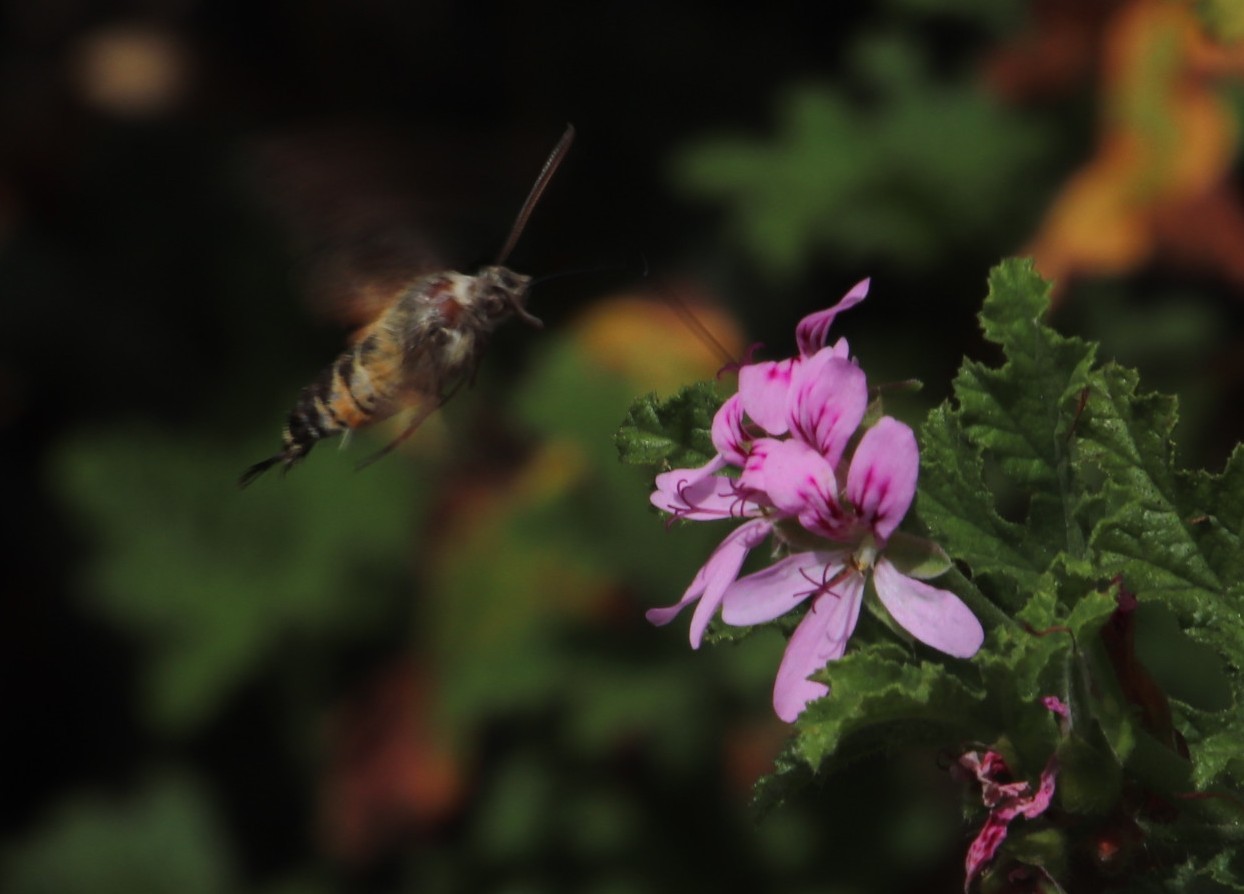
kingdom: Animalia
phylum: Arthropoda
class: Insecta
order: Lepidoptera
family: Sphingidae
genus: Macroglossum
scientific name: Macroglossum trochilus
